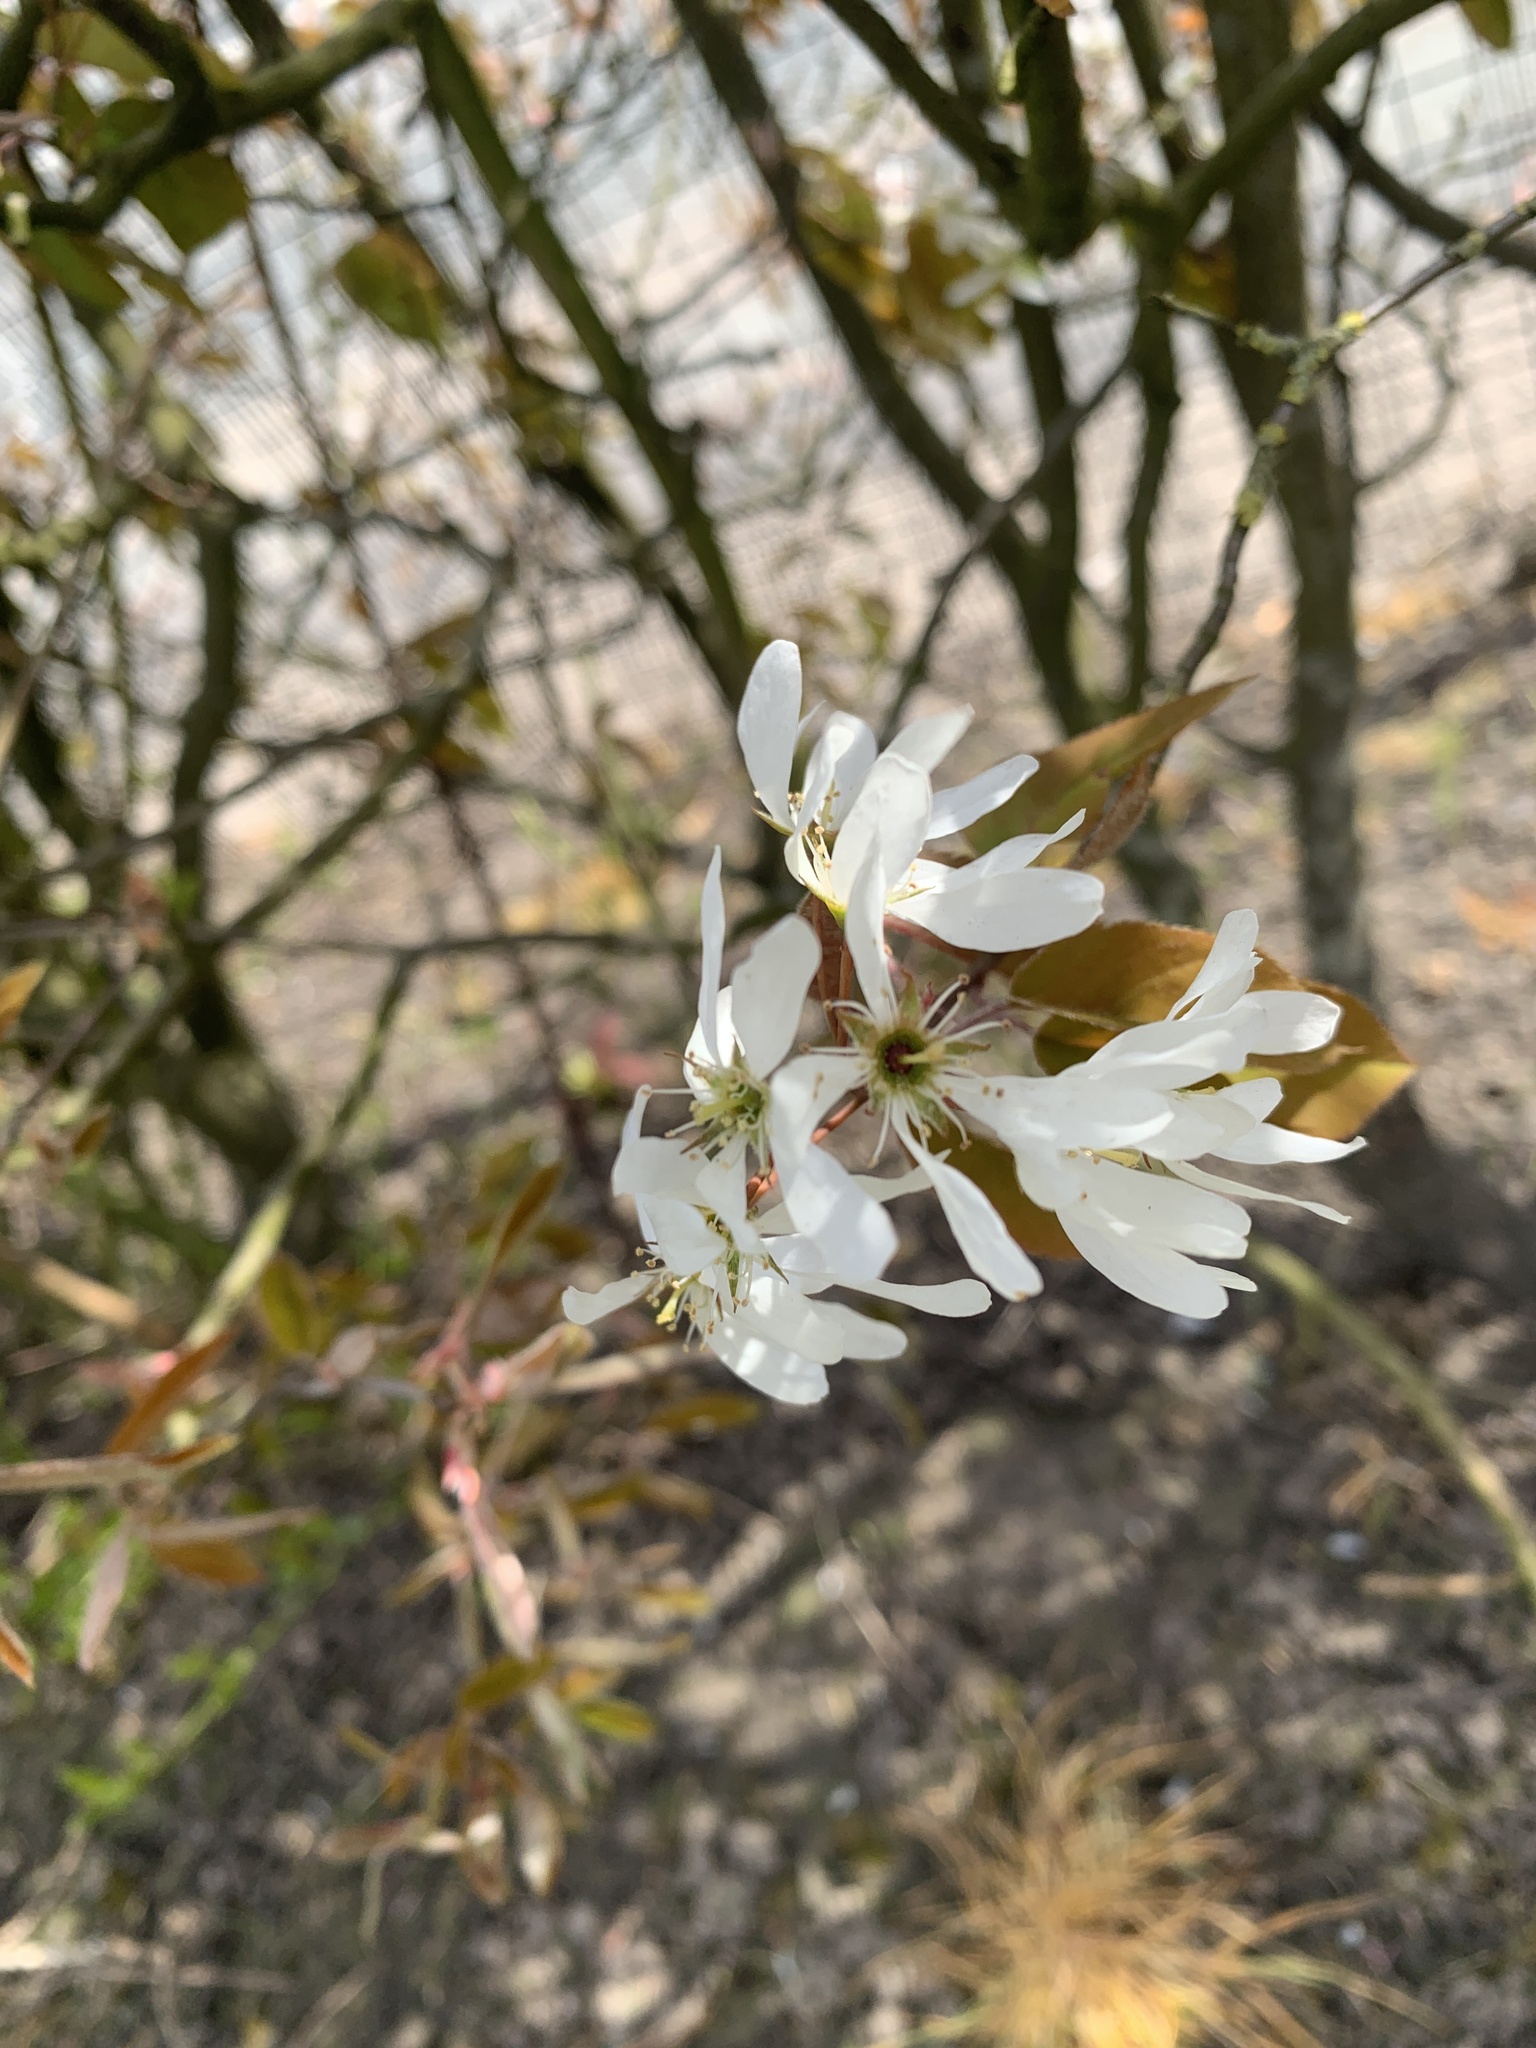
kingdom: Plantae
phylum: Tracheophyta
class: Magnoliopsida
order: Rosales
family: Rosaceae
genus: Amelanchier
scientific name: Amelanchier arborea
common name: Downy serviceberry
